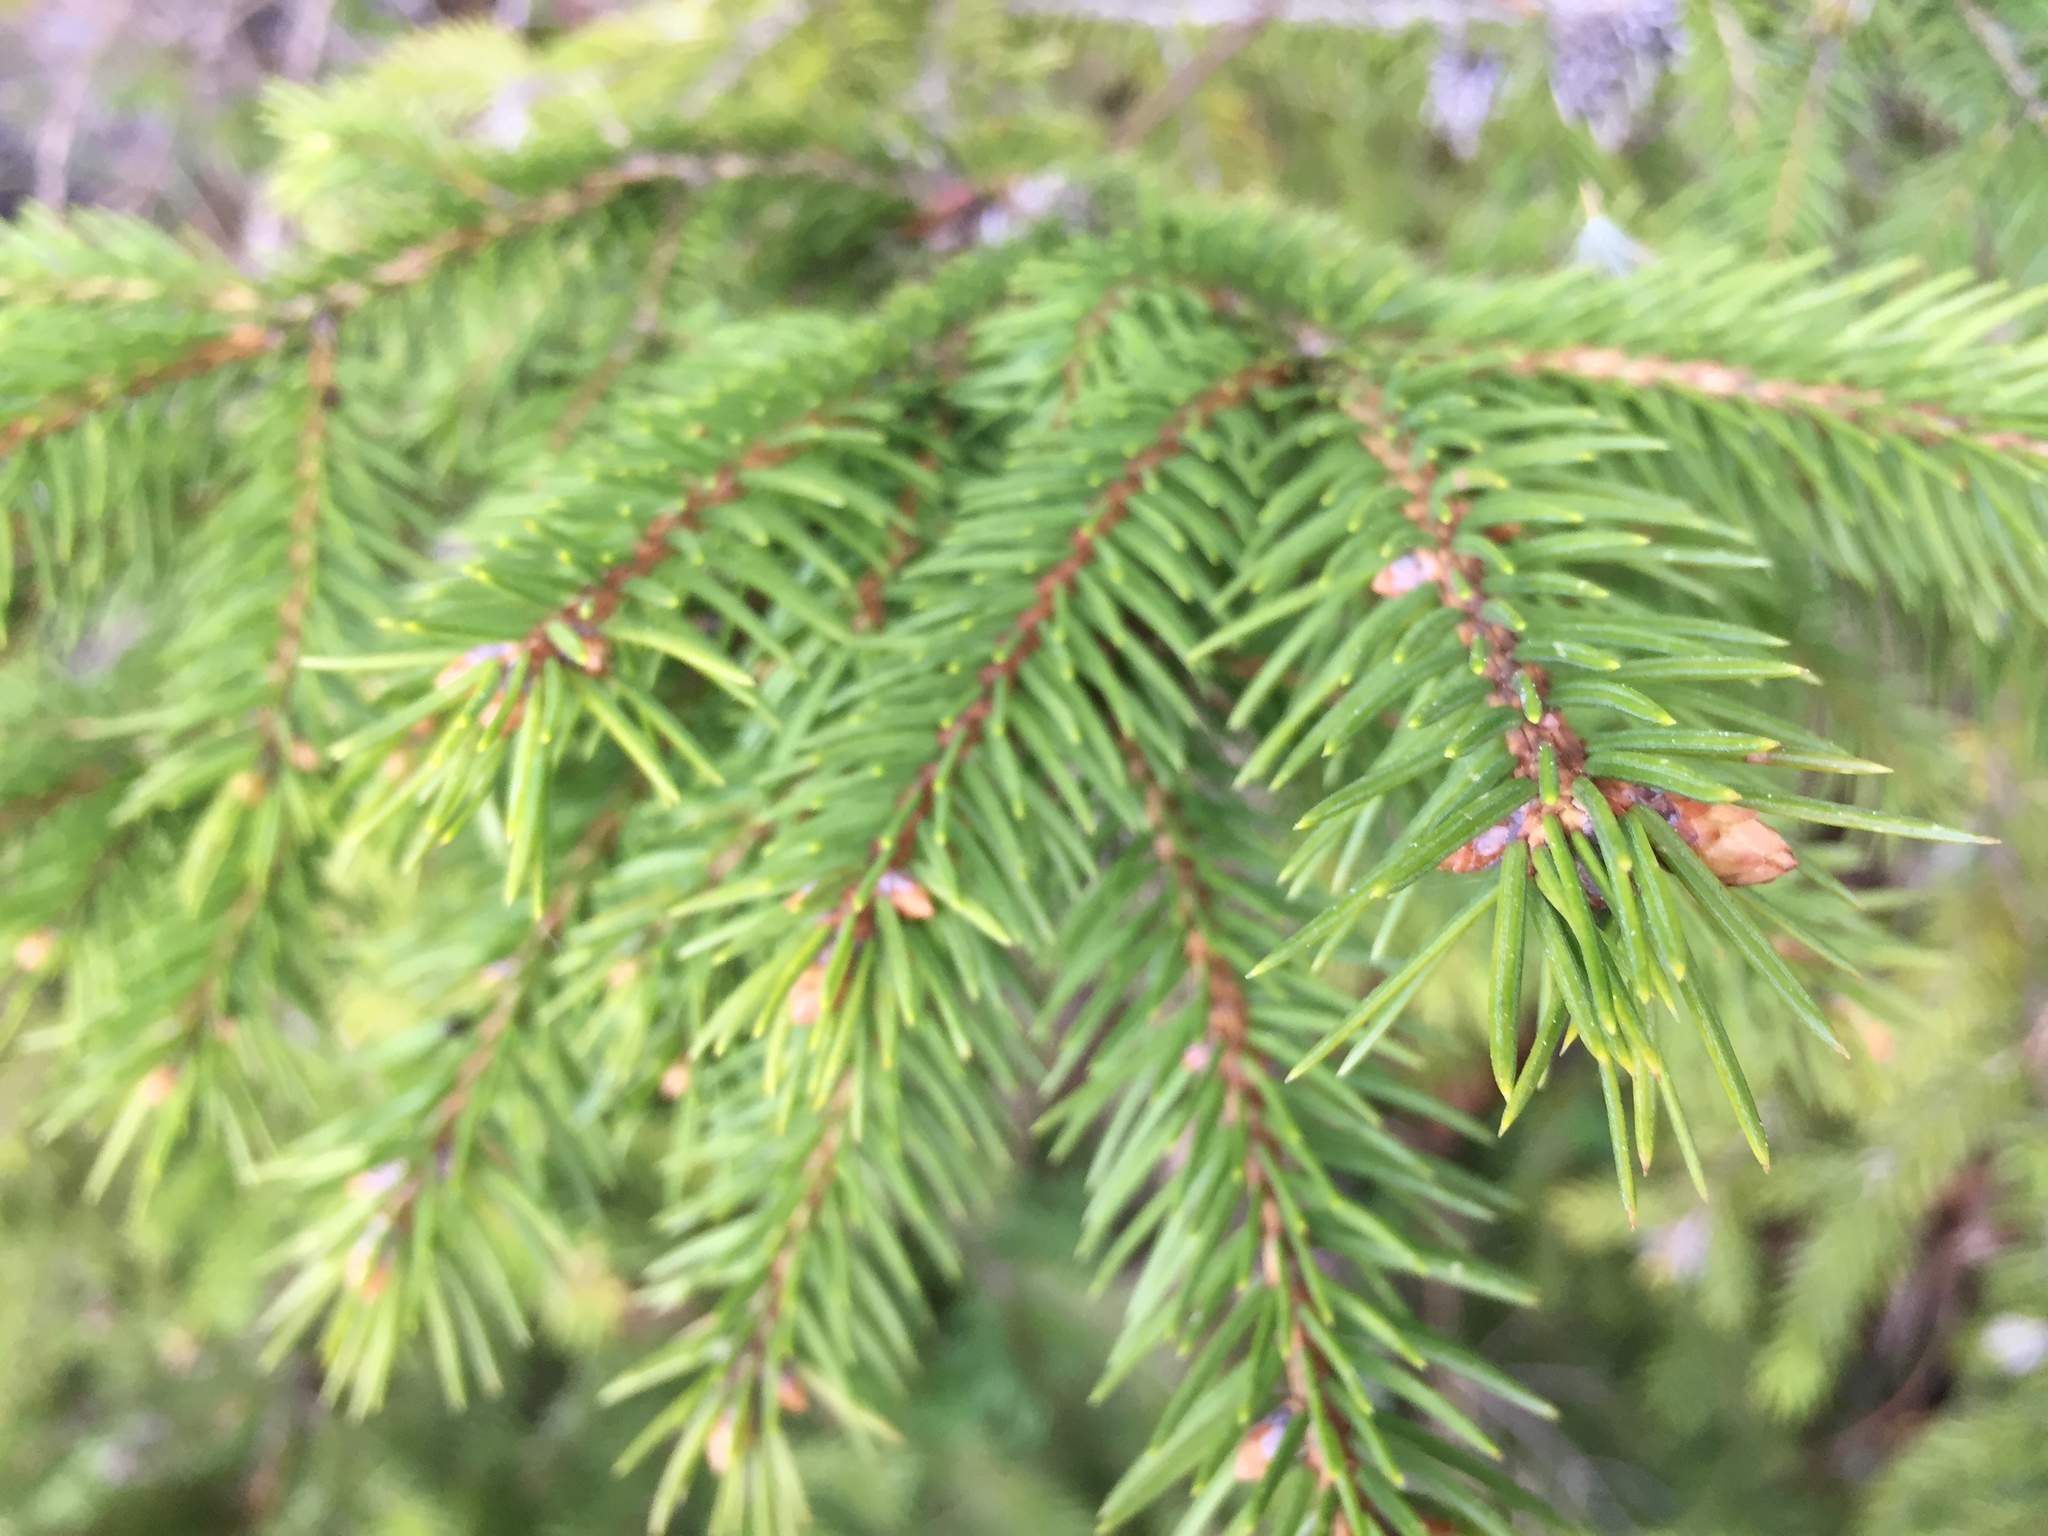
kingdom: Plantae
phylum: Tracheophyta
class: Pinopsida
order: Pinales
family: Pinaceae
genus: Picea
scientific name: Picea abies
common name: Norway spruce
